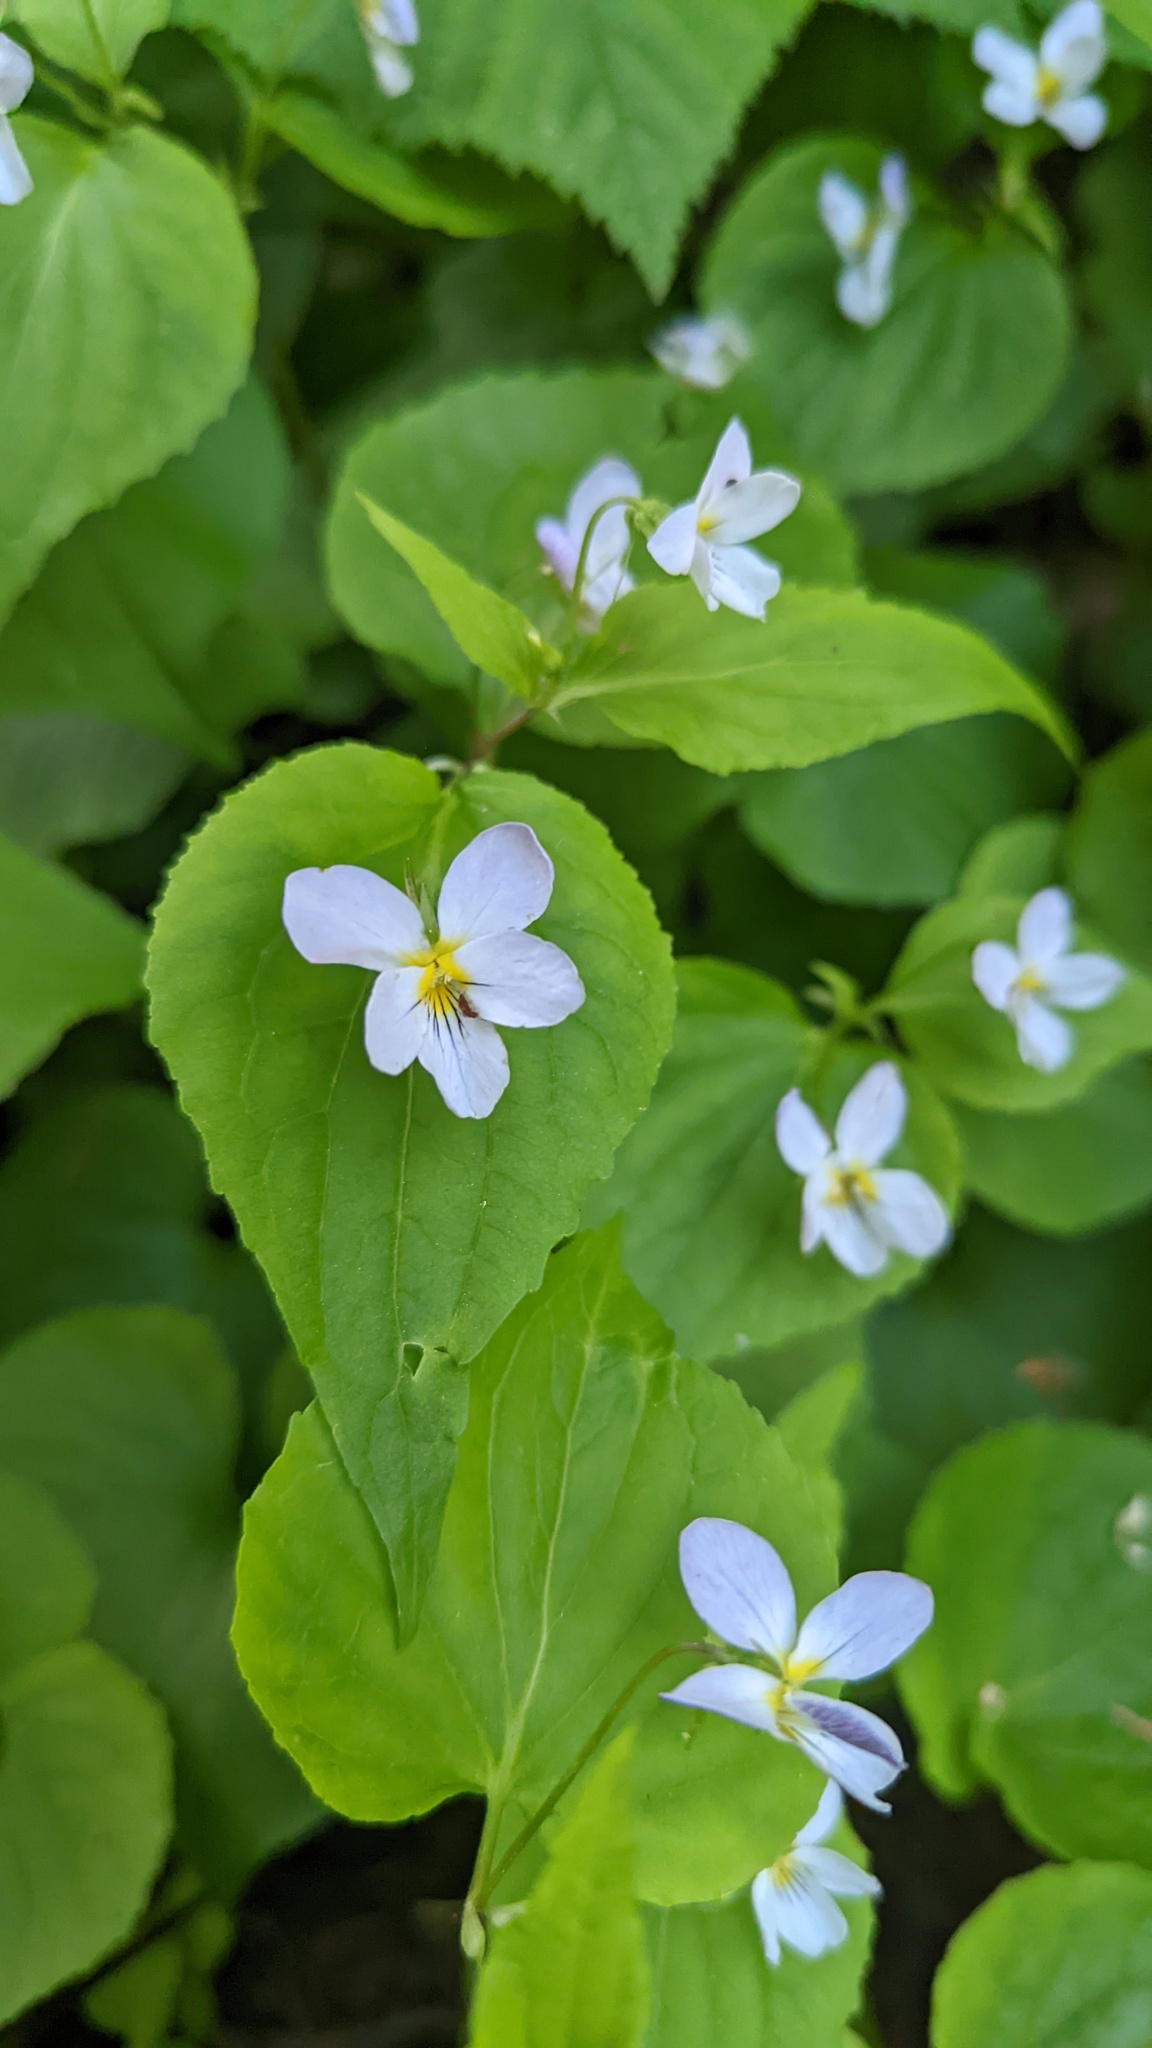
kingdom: Plantae
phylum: Tracheophyta
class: Magnoliopsida
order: Malpighiales
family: Violaceae
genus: Viola
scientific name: Viola canadensis
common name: Canada violet
